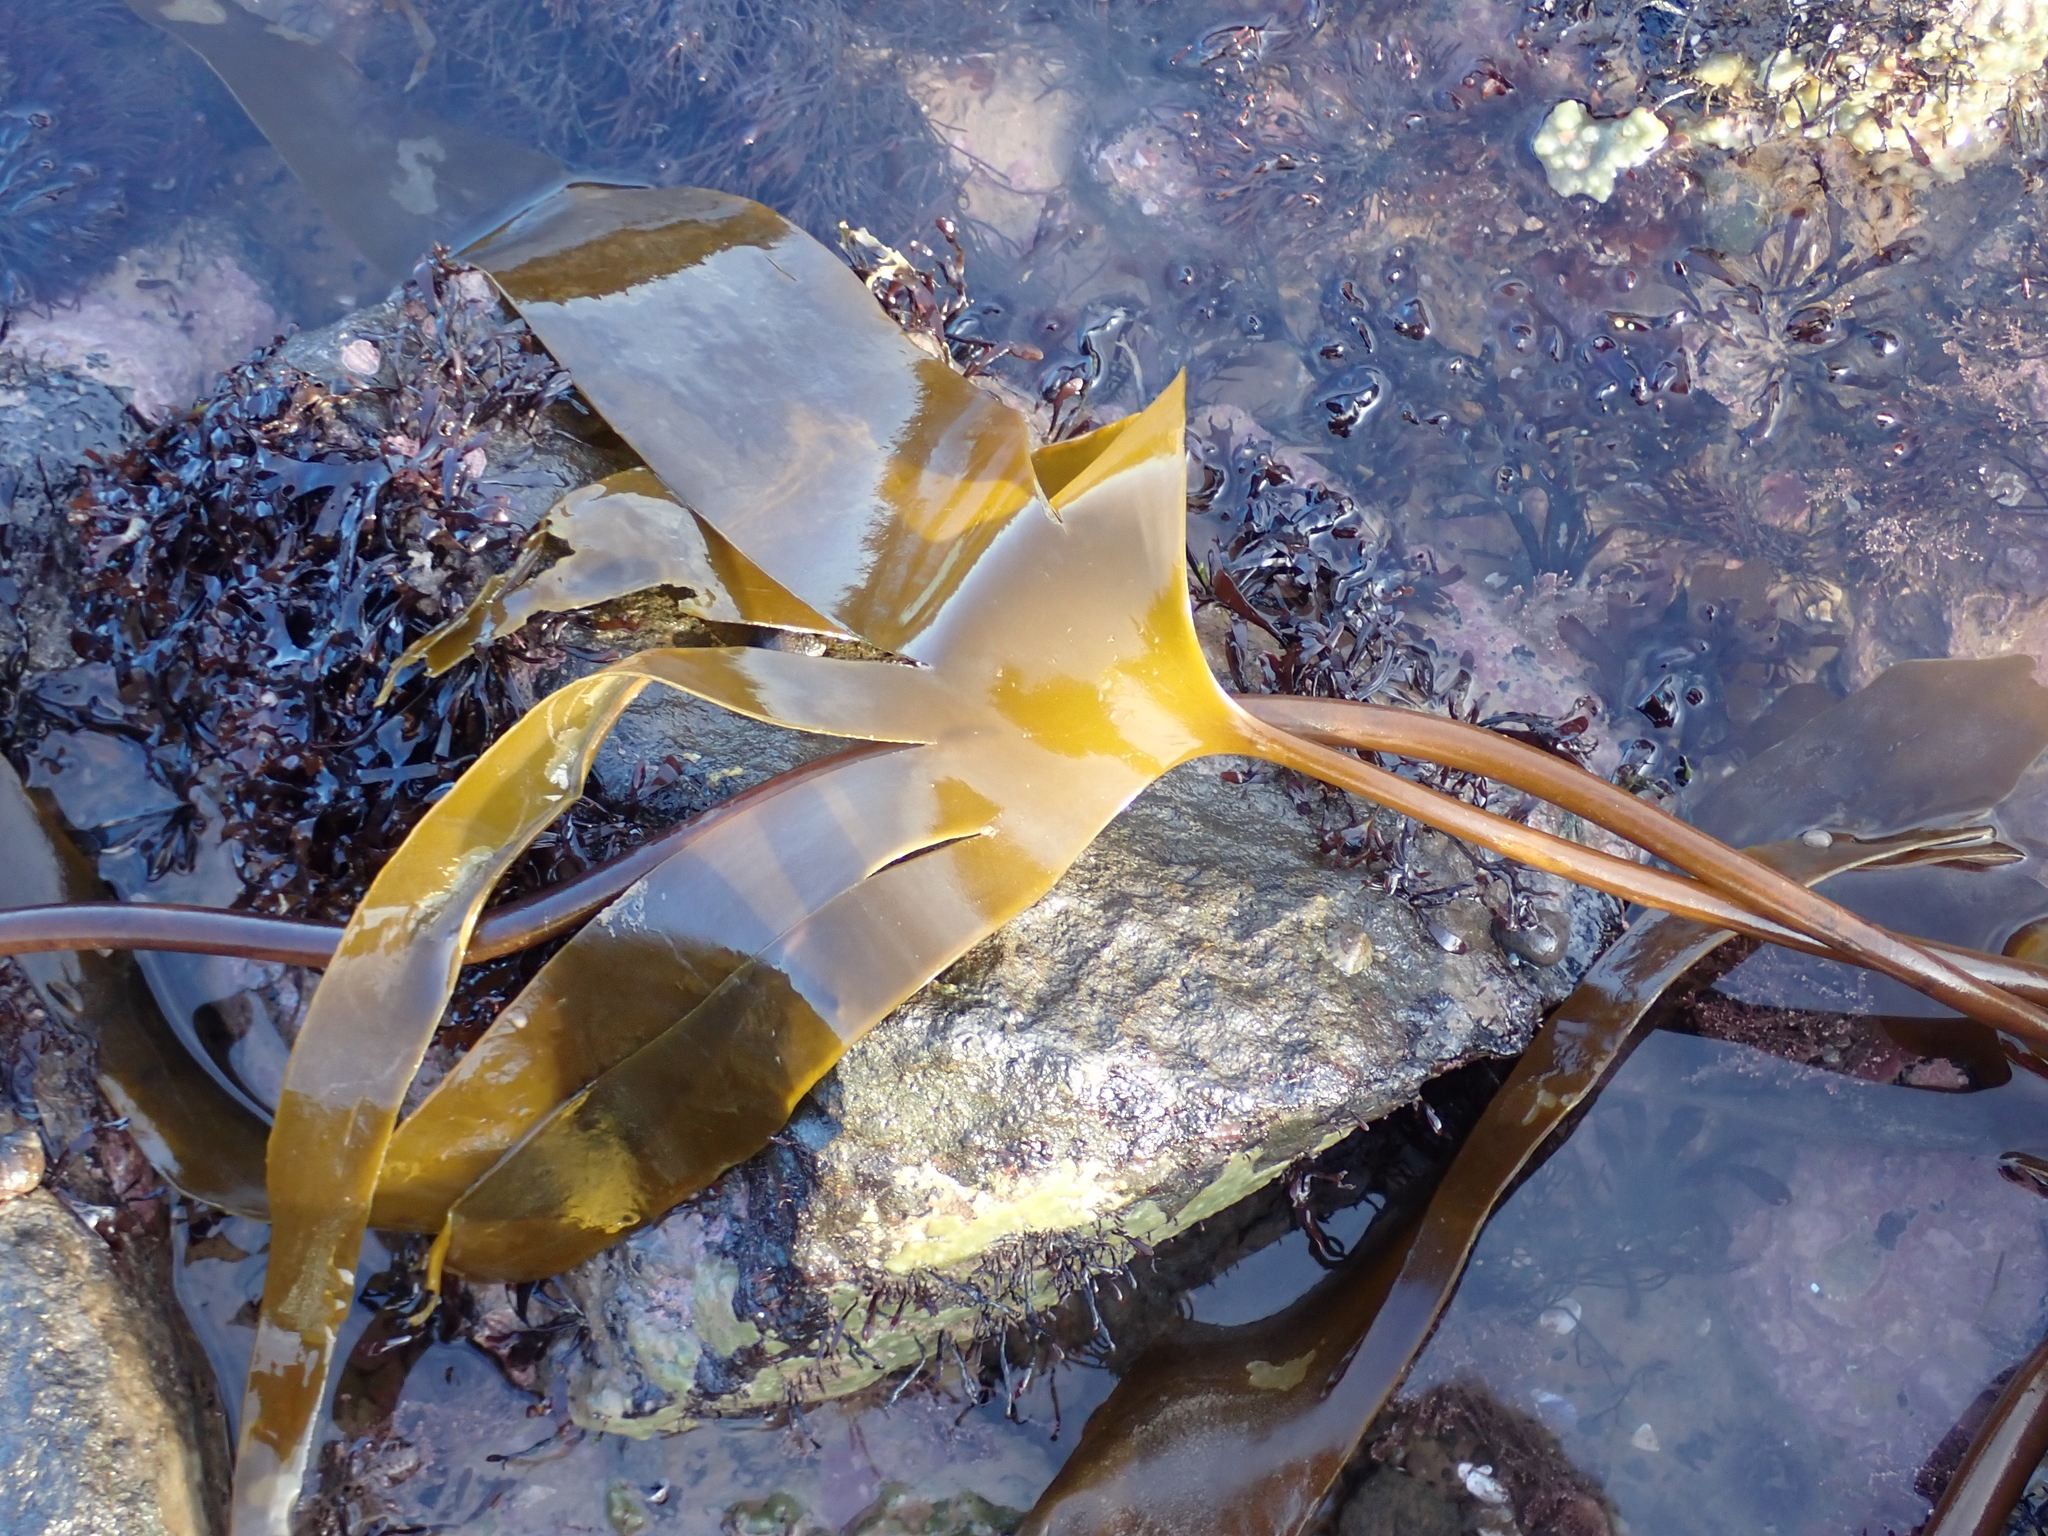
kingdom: Chromista
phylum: Ochrophyta
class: Phaeophyceae
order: Laminariales
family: Laminariaceae
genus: Laminaria
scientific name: Laminaria digitata
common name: Oarweed
